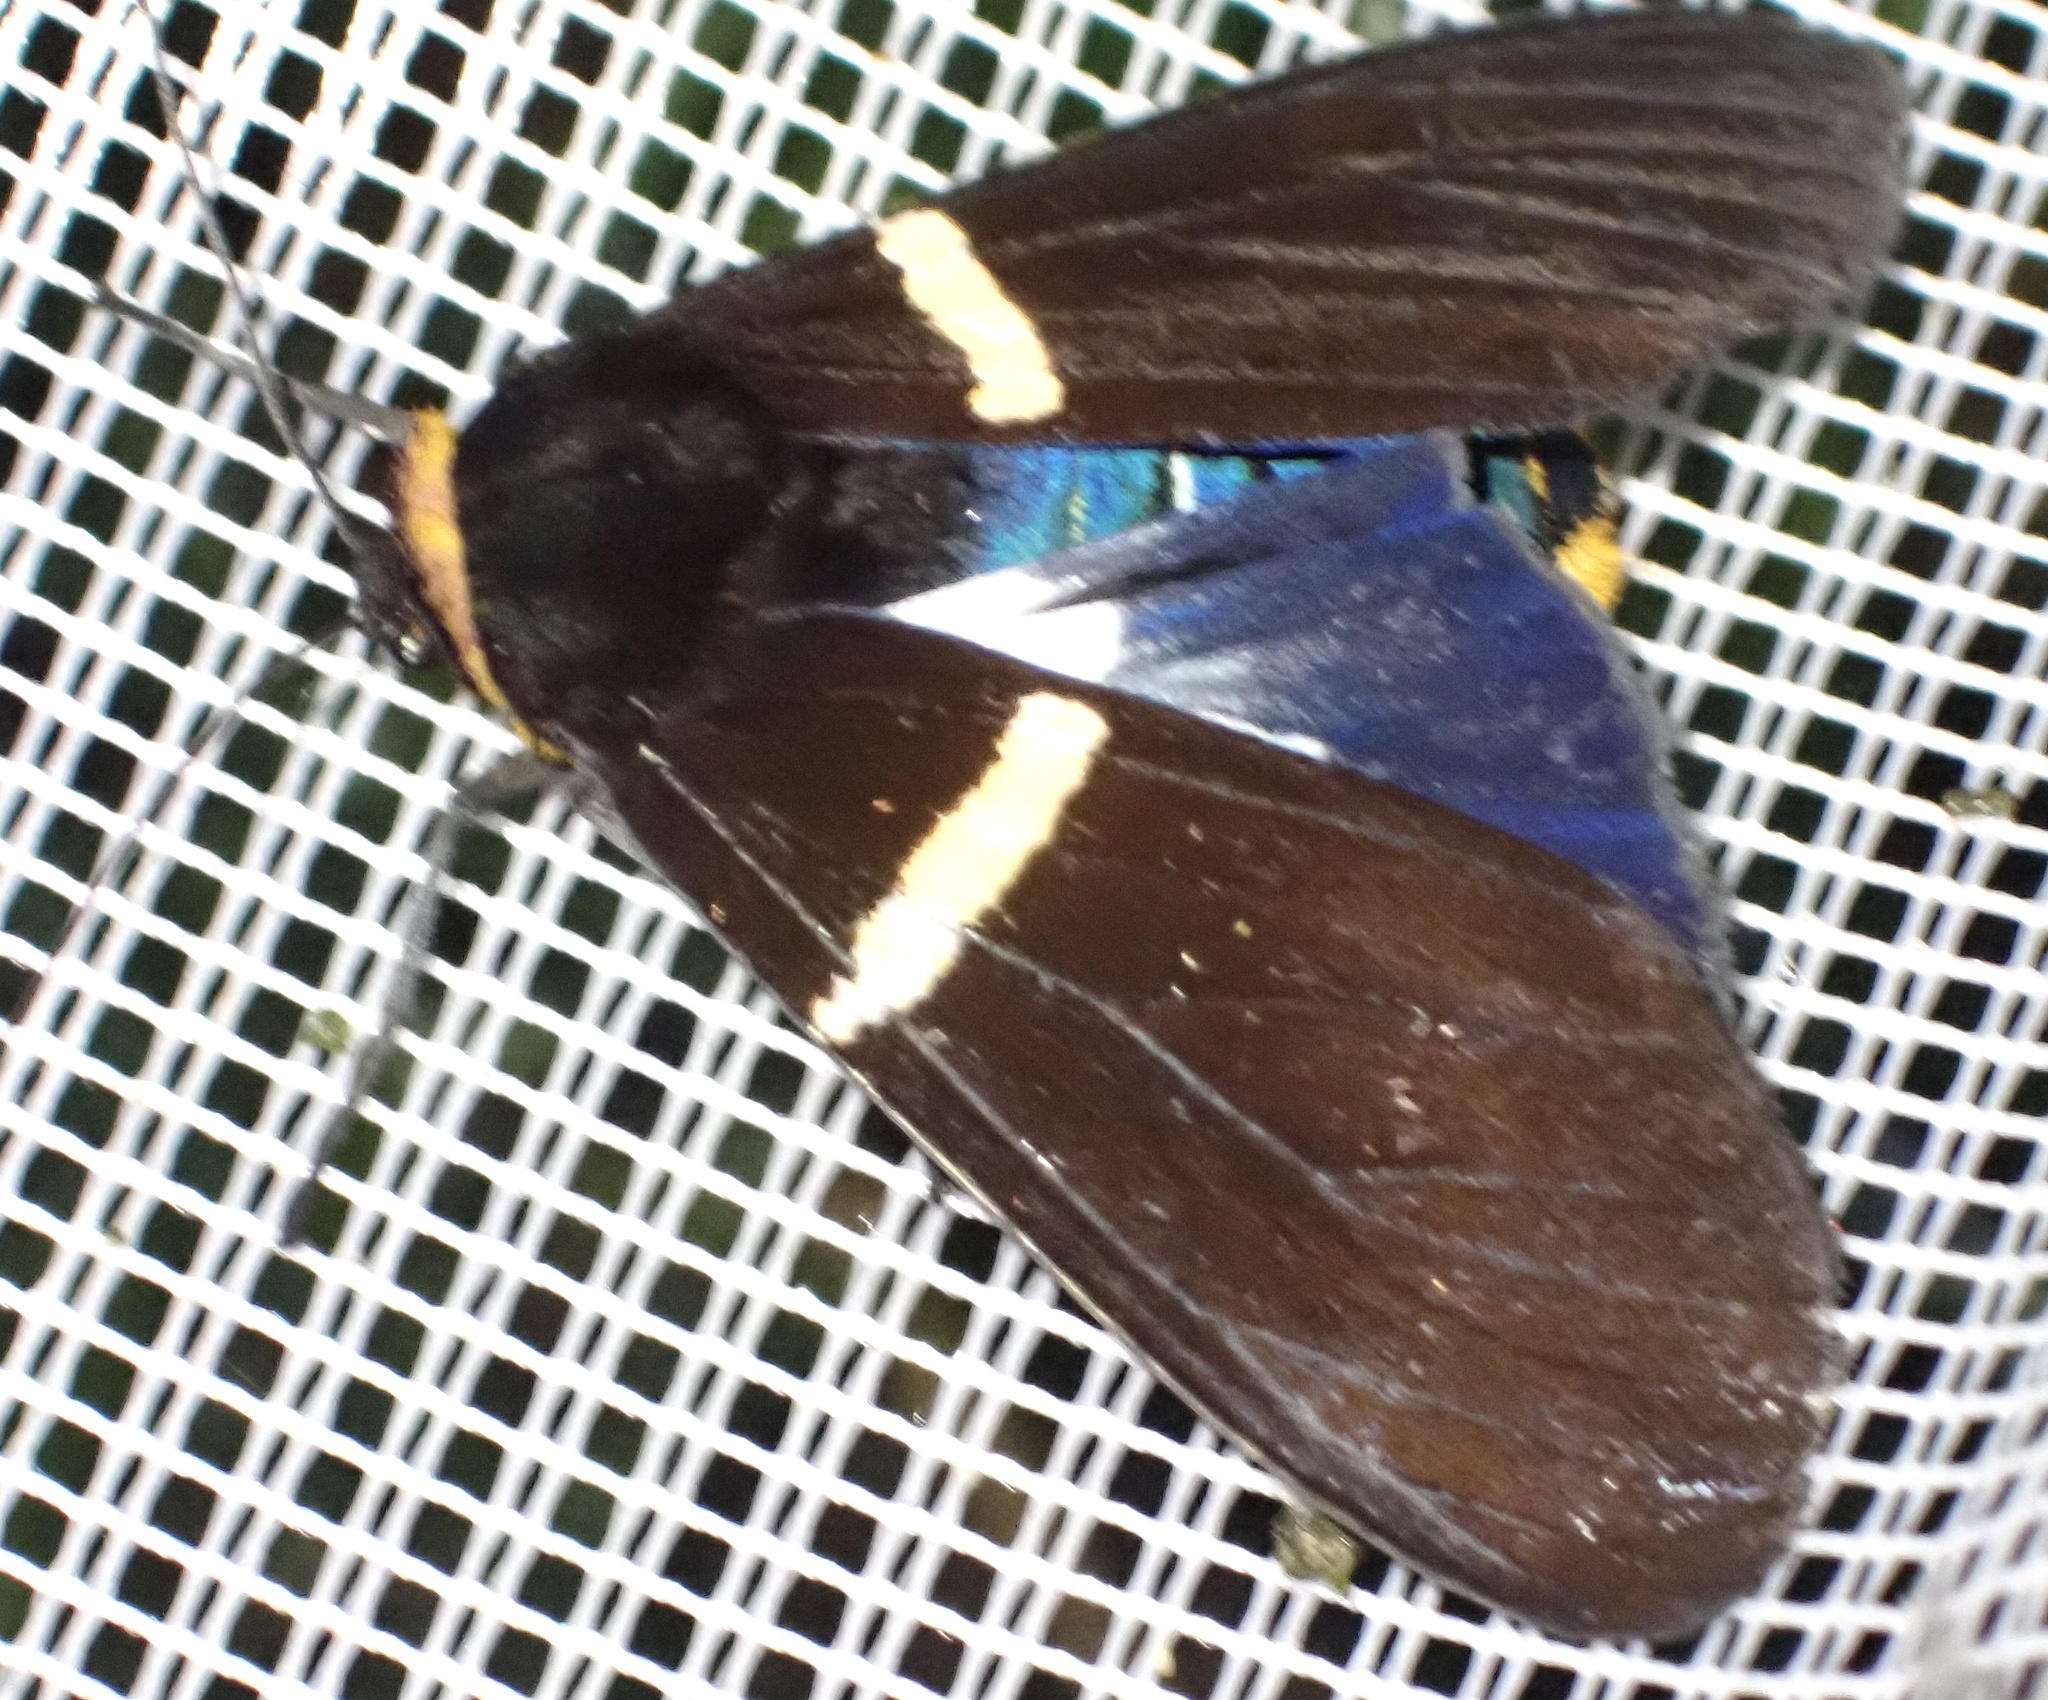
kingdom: Animalia
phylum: Arthropoda
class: Insecta
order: Lepidoptera
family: Erebidae
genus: Spilosoma
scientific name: Spilosoma
